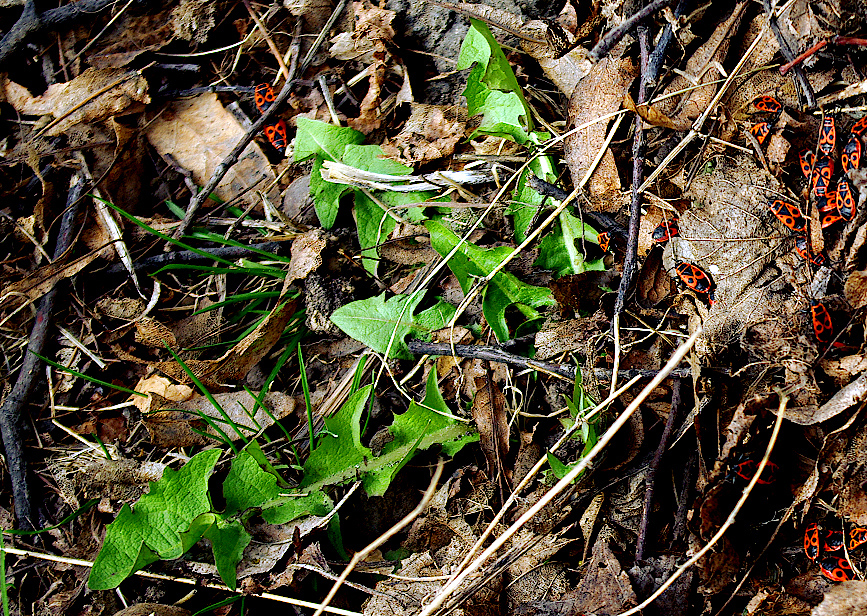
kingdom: Plantae
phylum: Tracheophyta
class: Magnoliopsida
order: Asterales
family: Asteraceae
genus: Taraxacum
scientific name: Taraxacum officinale
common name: Common dandelion
